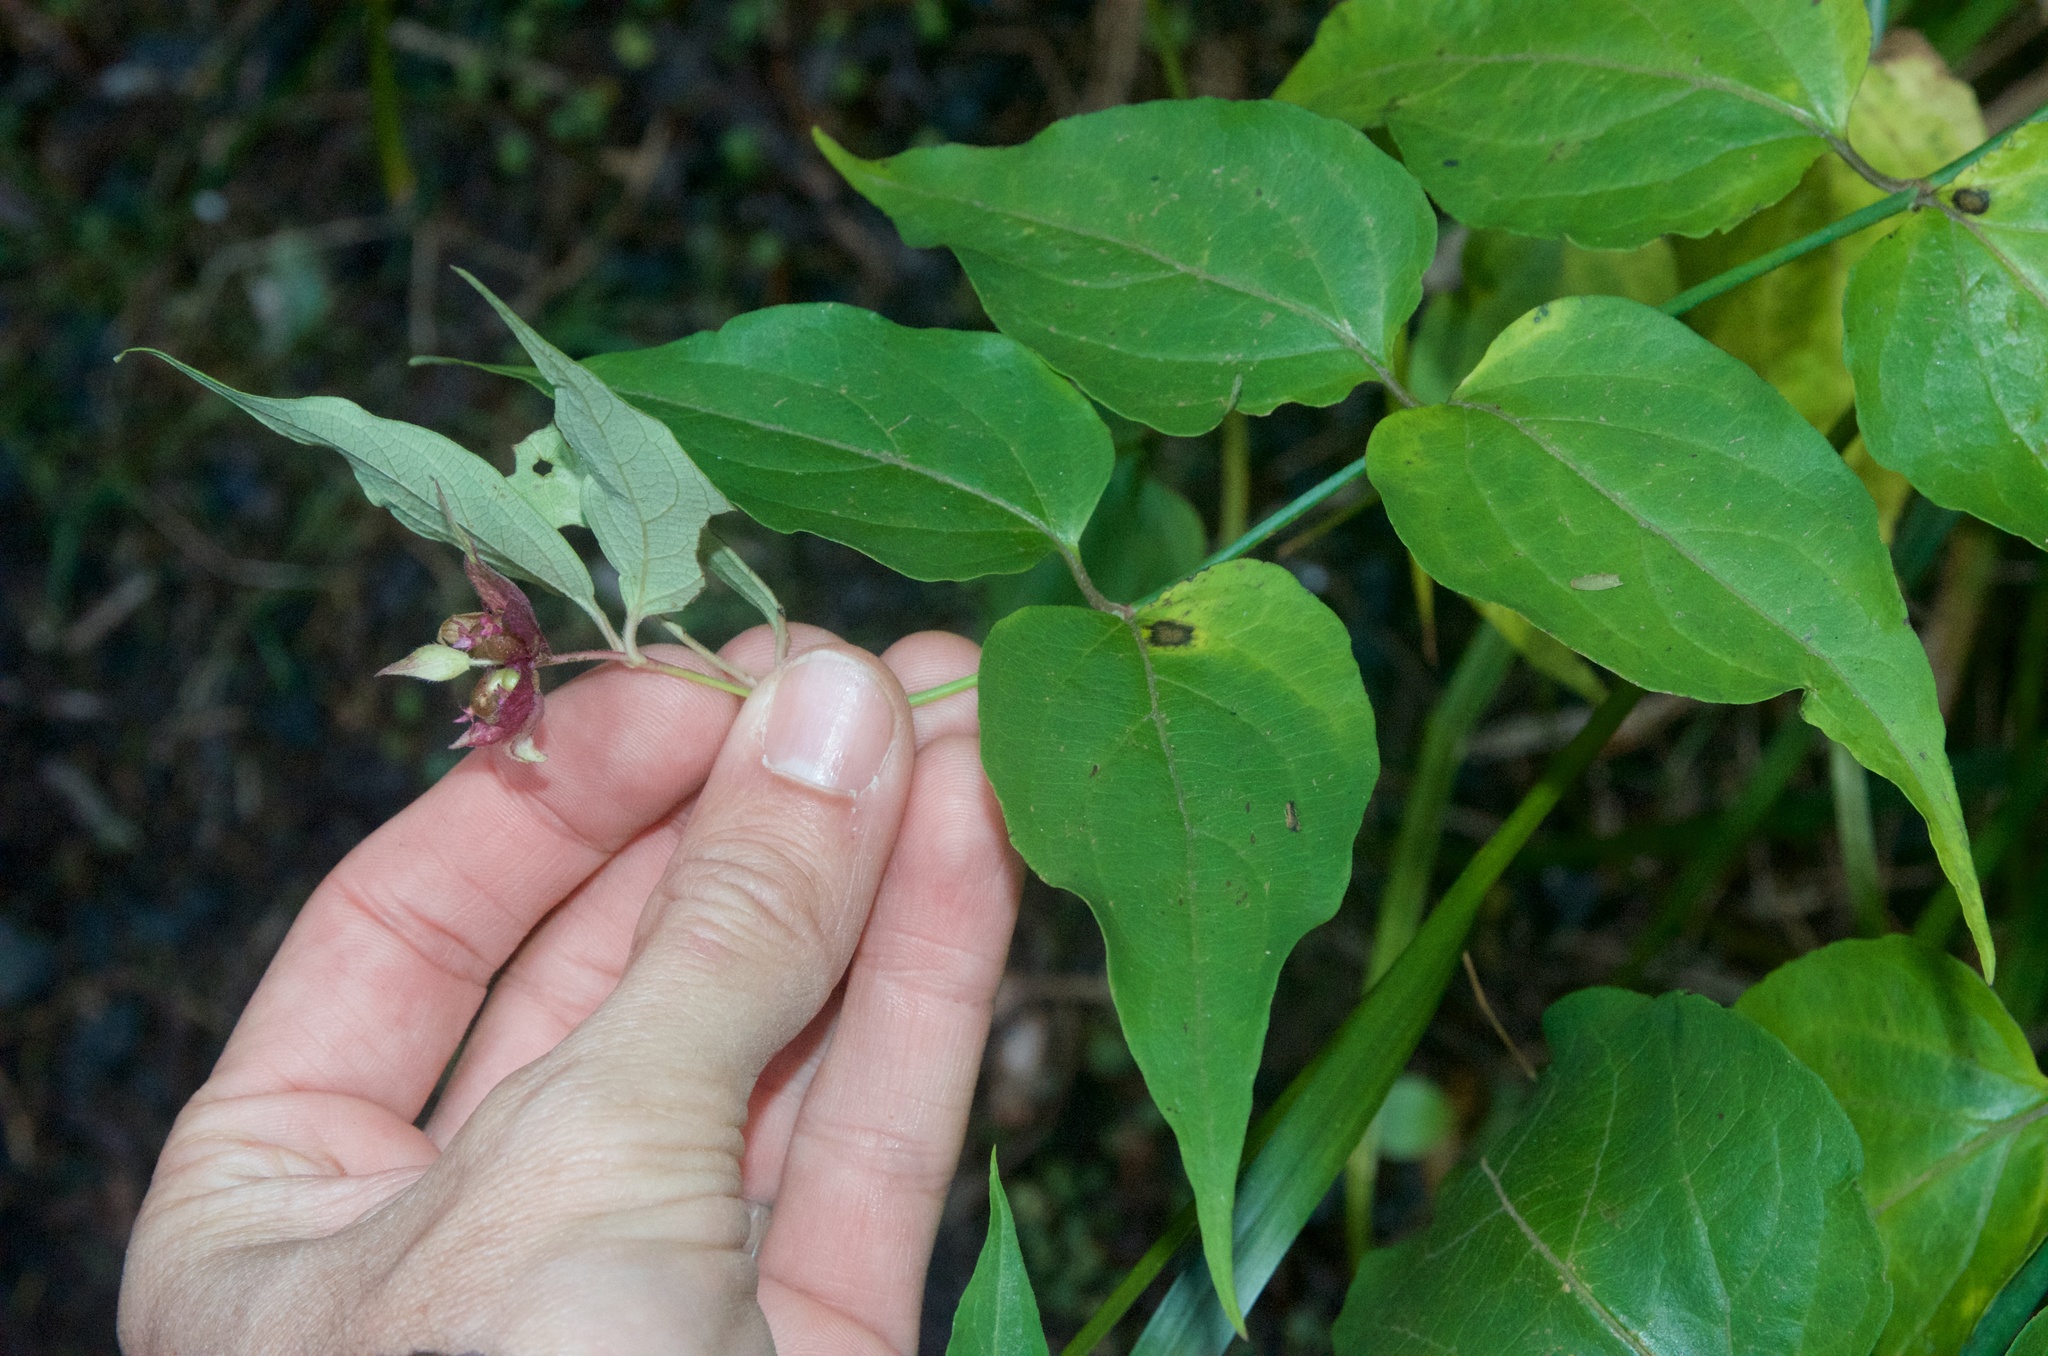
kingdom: Plantae
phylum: Tracheophyta
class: Magnoliopsida
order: Dipsacales
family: Caprifoliaceae
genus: Leycesteria
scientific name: Leycesteria formosa
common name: Himalayan honeysuckle
